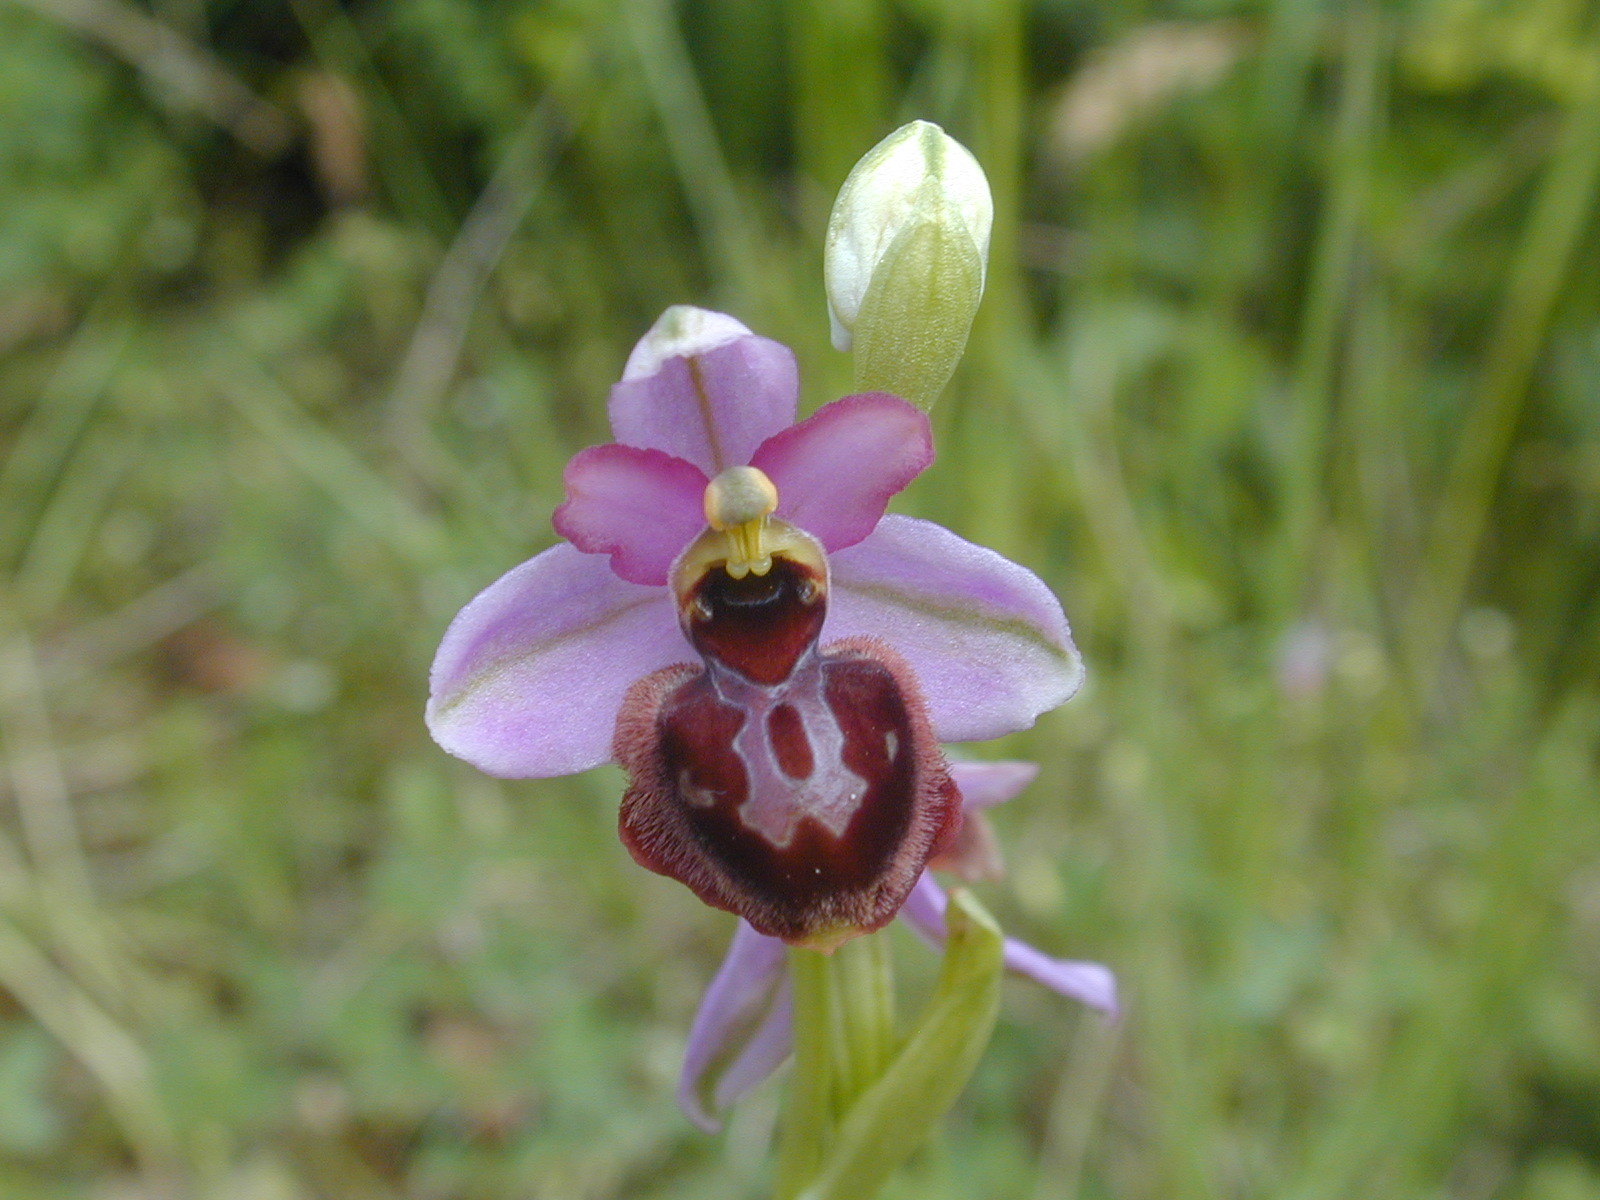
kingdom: Plantae
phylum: Tracheophyta
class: Liliopsida
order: Asparagales
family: Orchidaceae
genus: Ophrys
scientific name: Ophrys sphegodes
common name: Early spider-orchid
